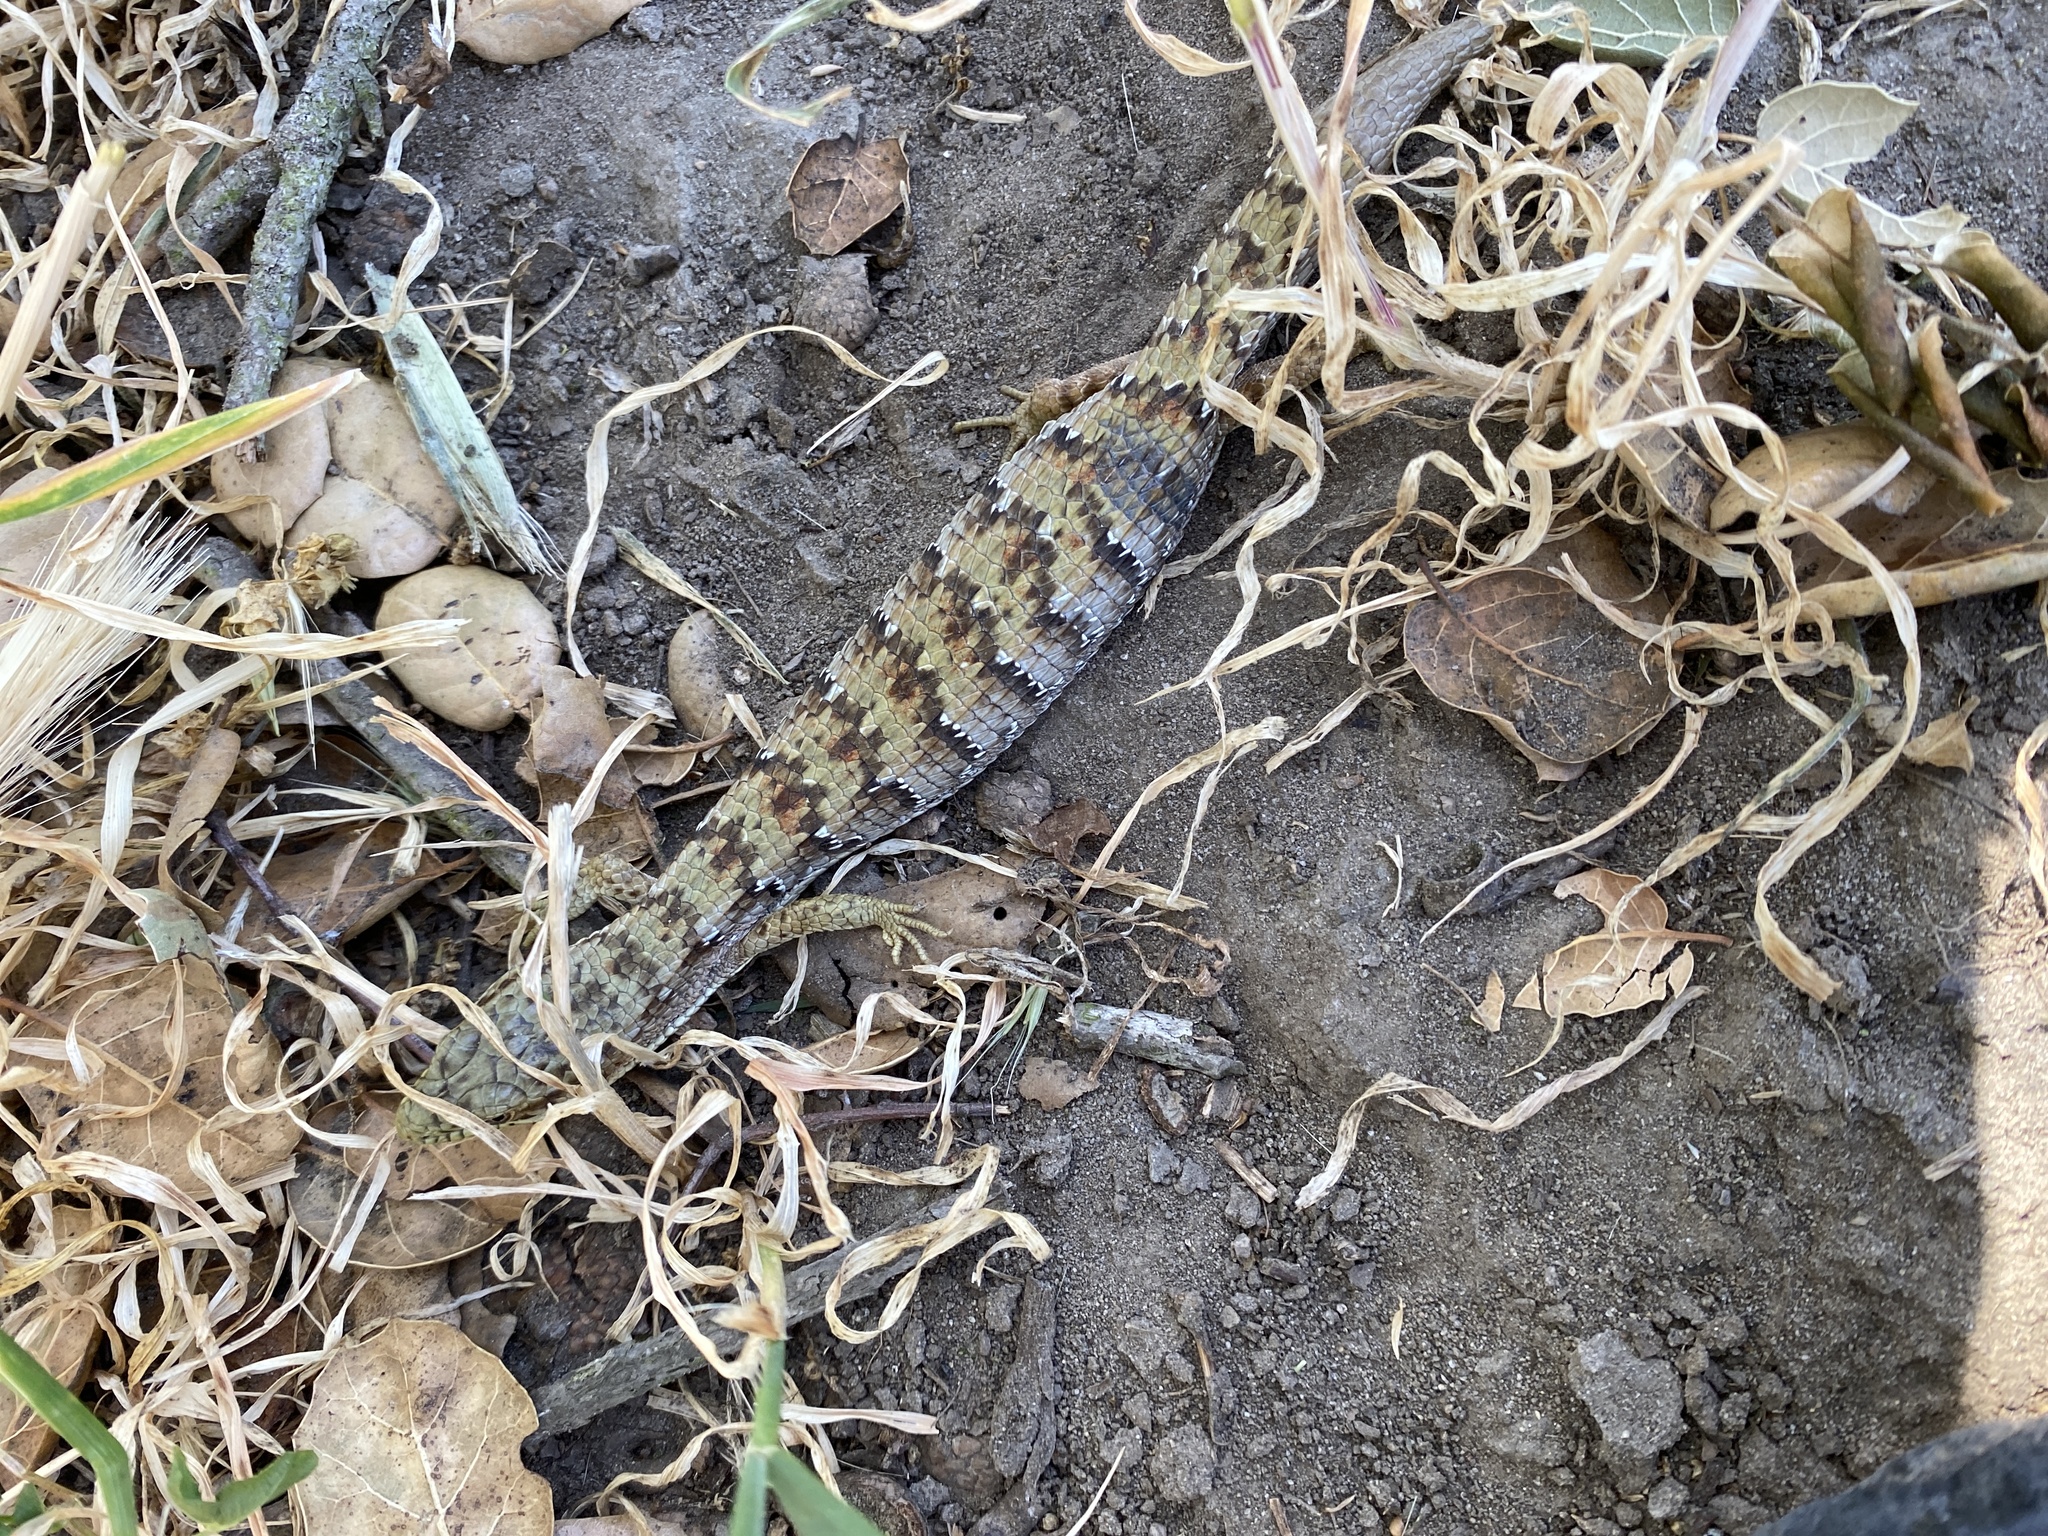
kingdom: Animalia
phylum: Chordata
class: Squamata
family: Anguidae
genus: Elgaria
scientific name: Elgaria multicarinata
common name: Southern alligator lizard
